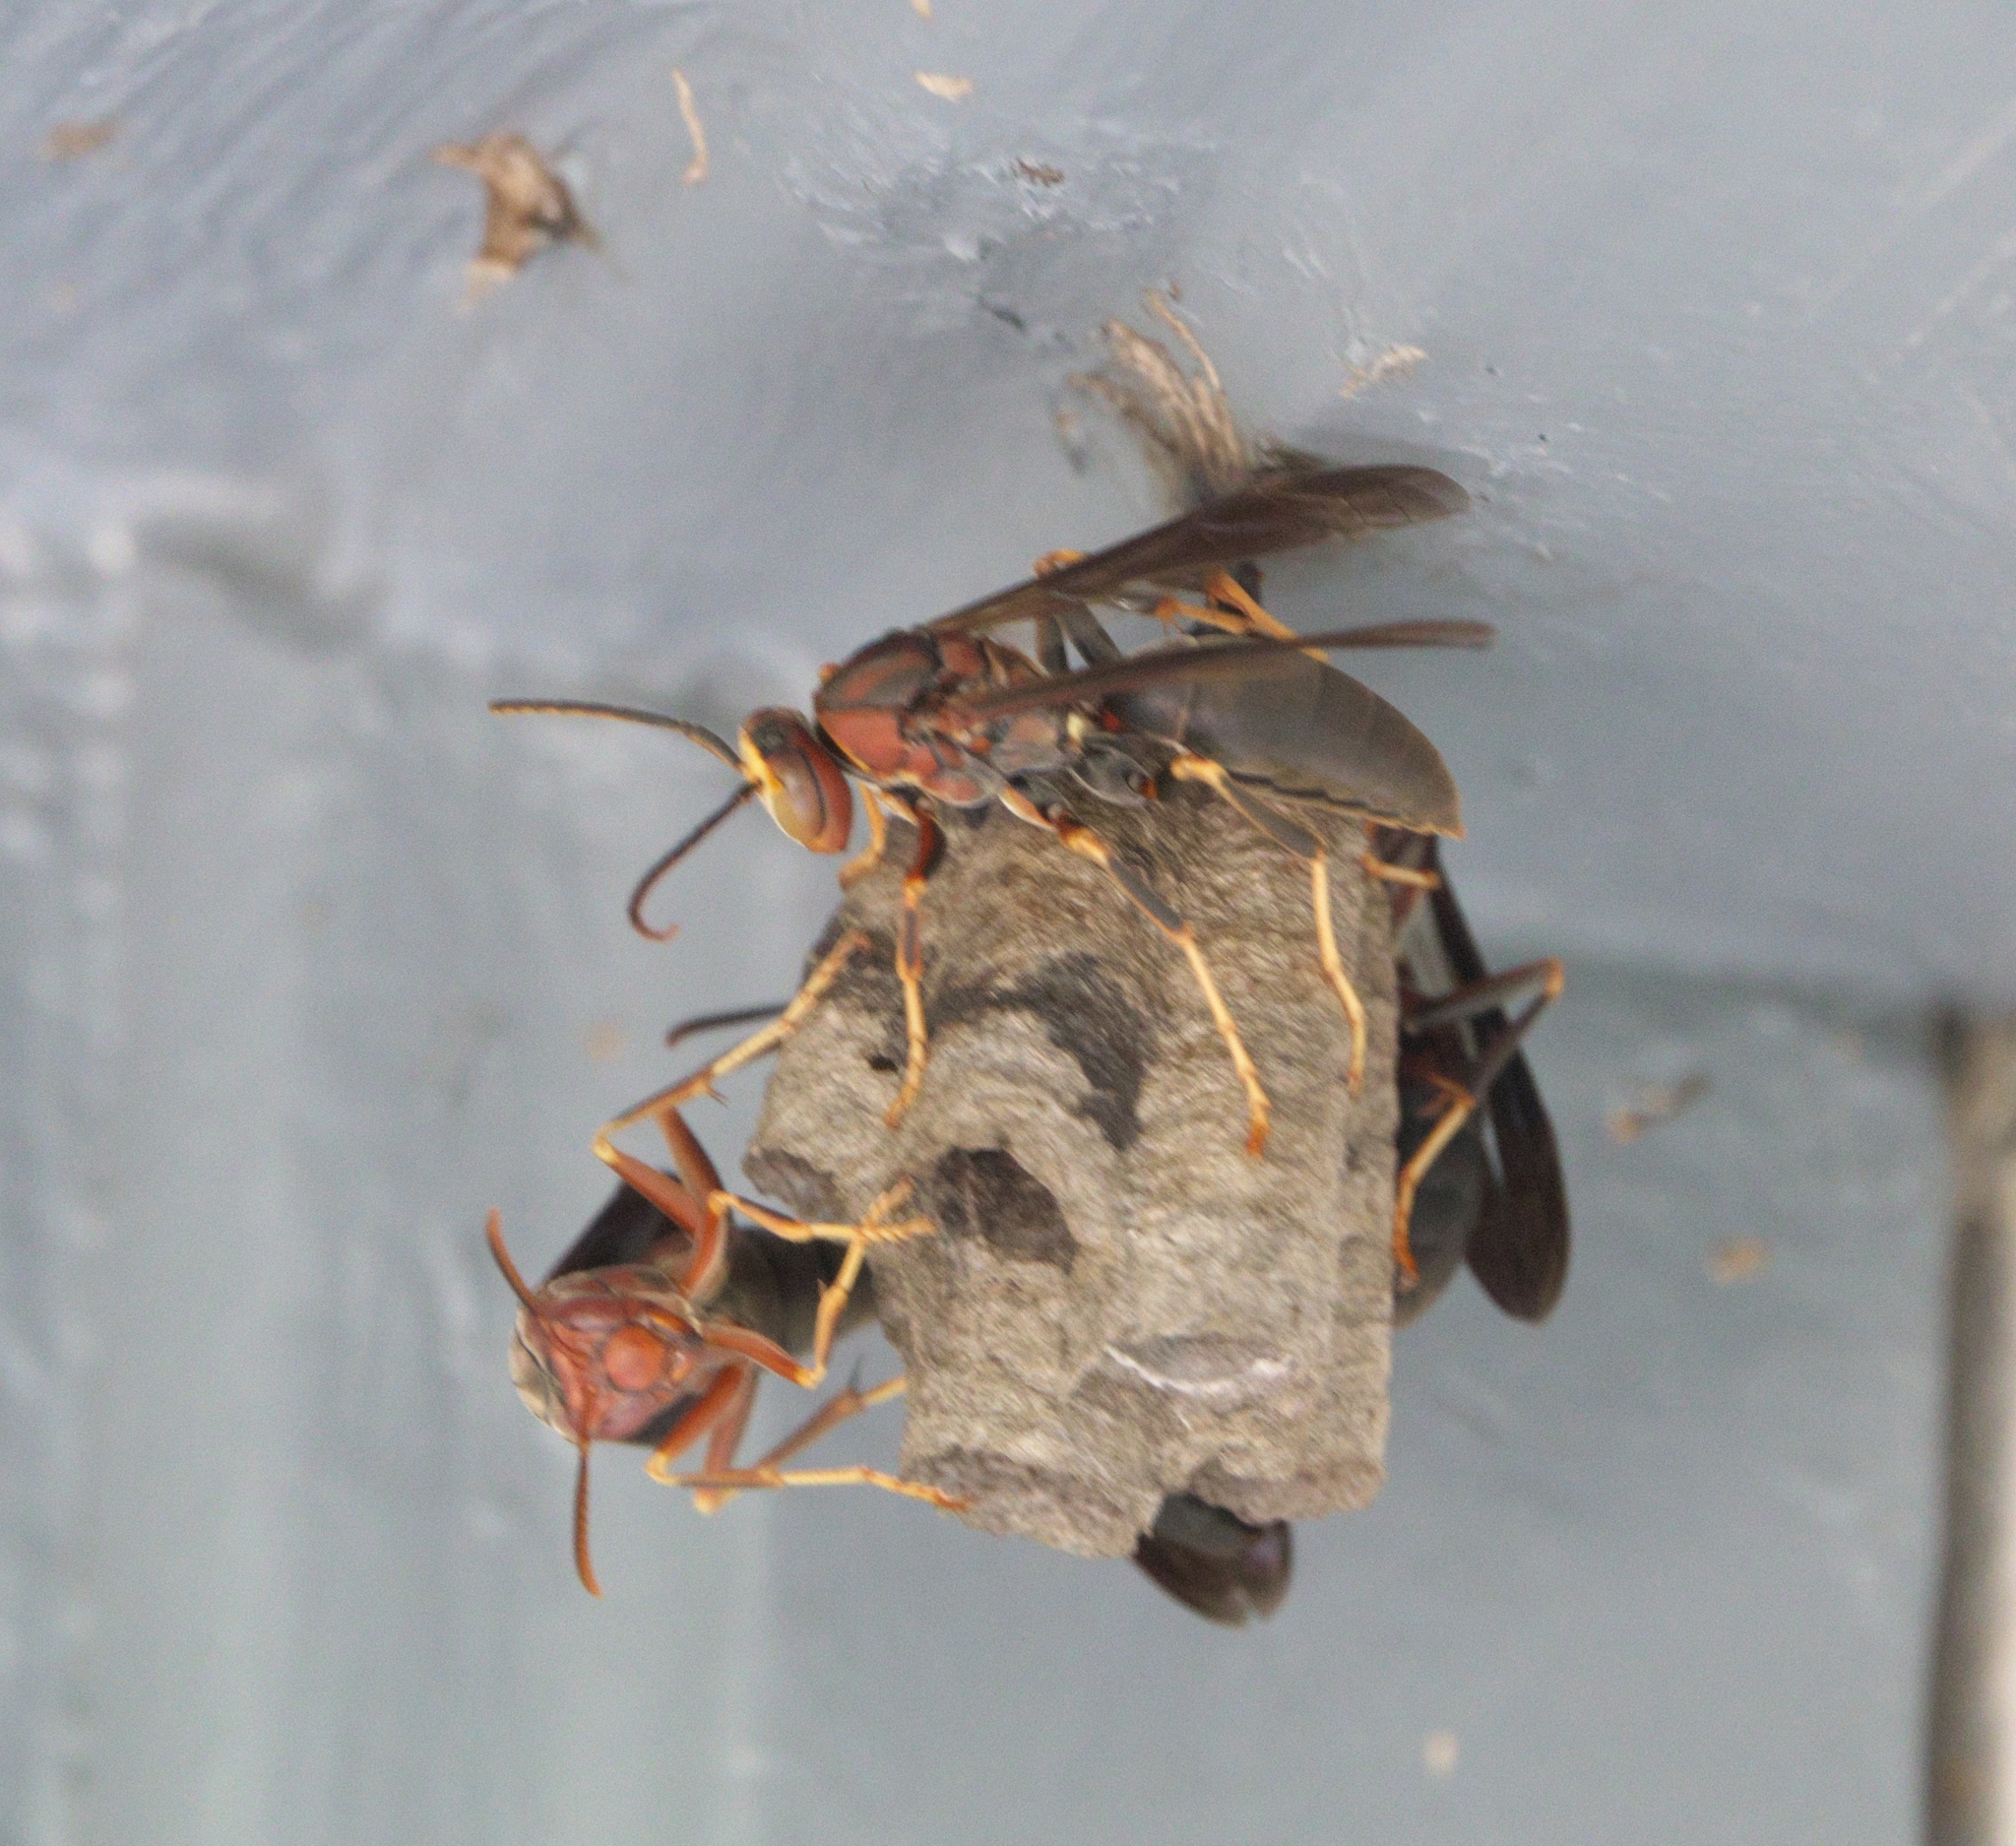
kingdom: Animalia
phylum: Arthropoda
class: Insecta
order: Hymenoptera
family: Eumenidae
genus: Polistes
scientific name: Polistes metricus
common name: Metric paper wasp
